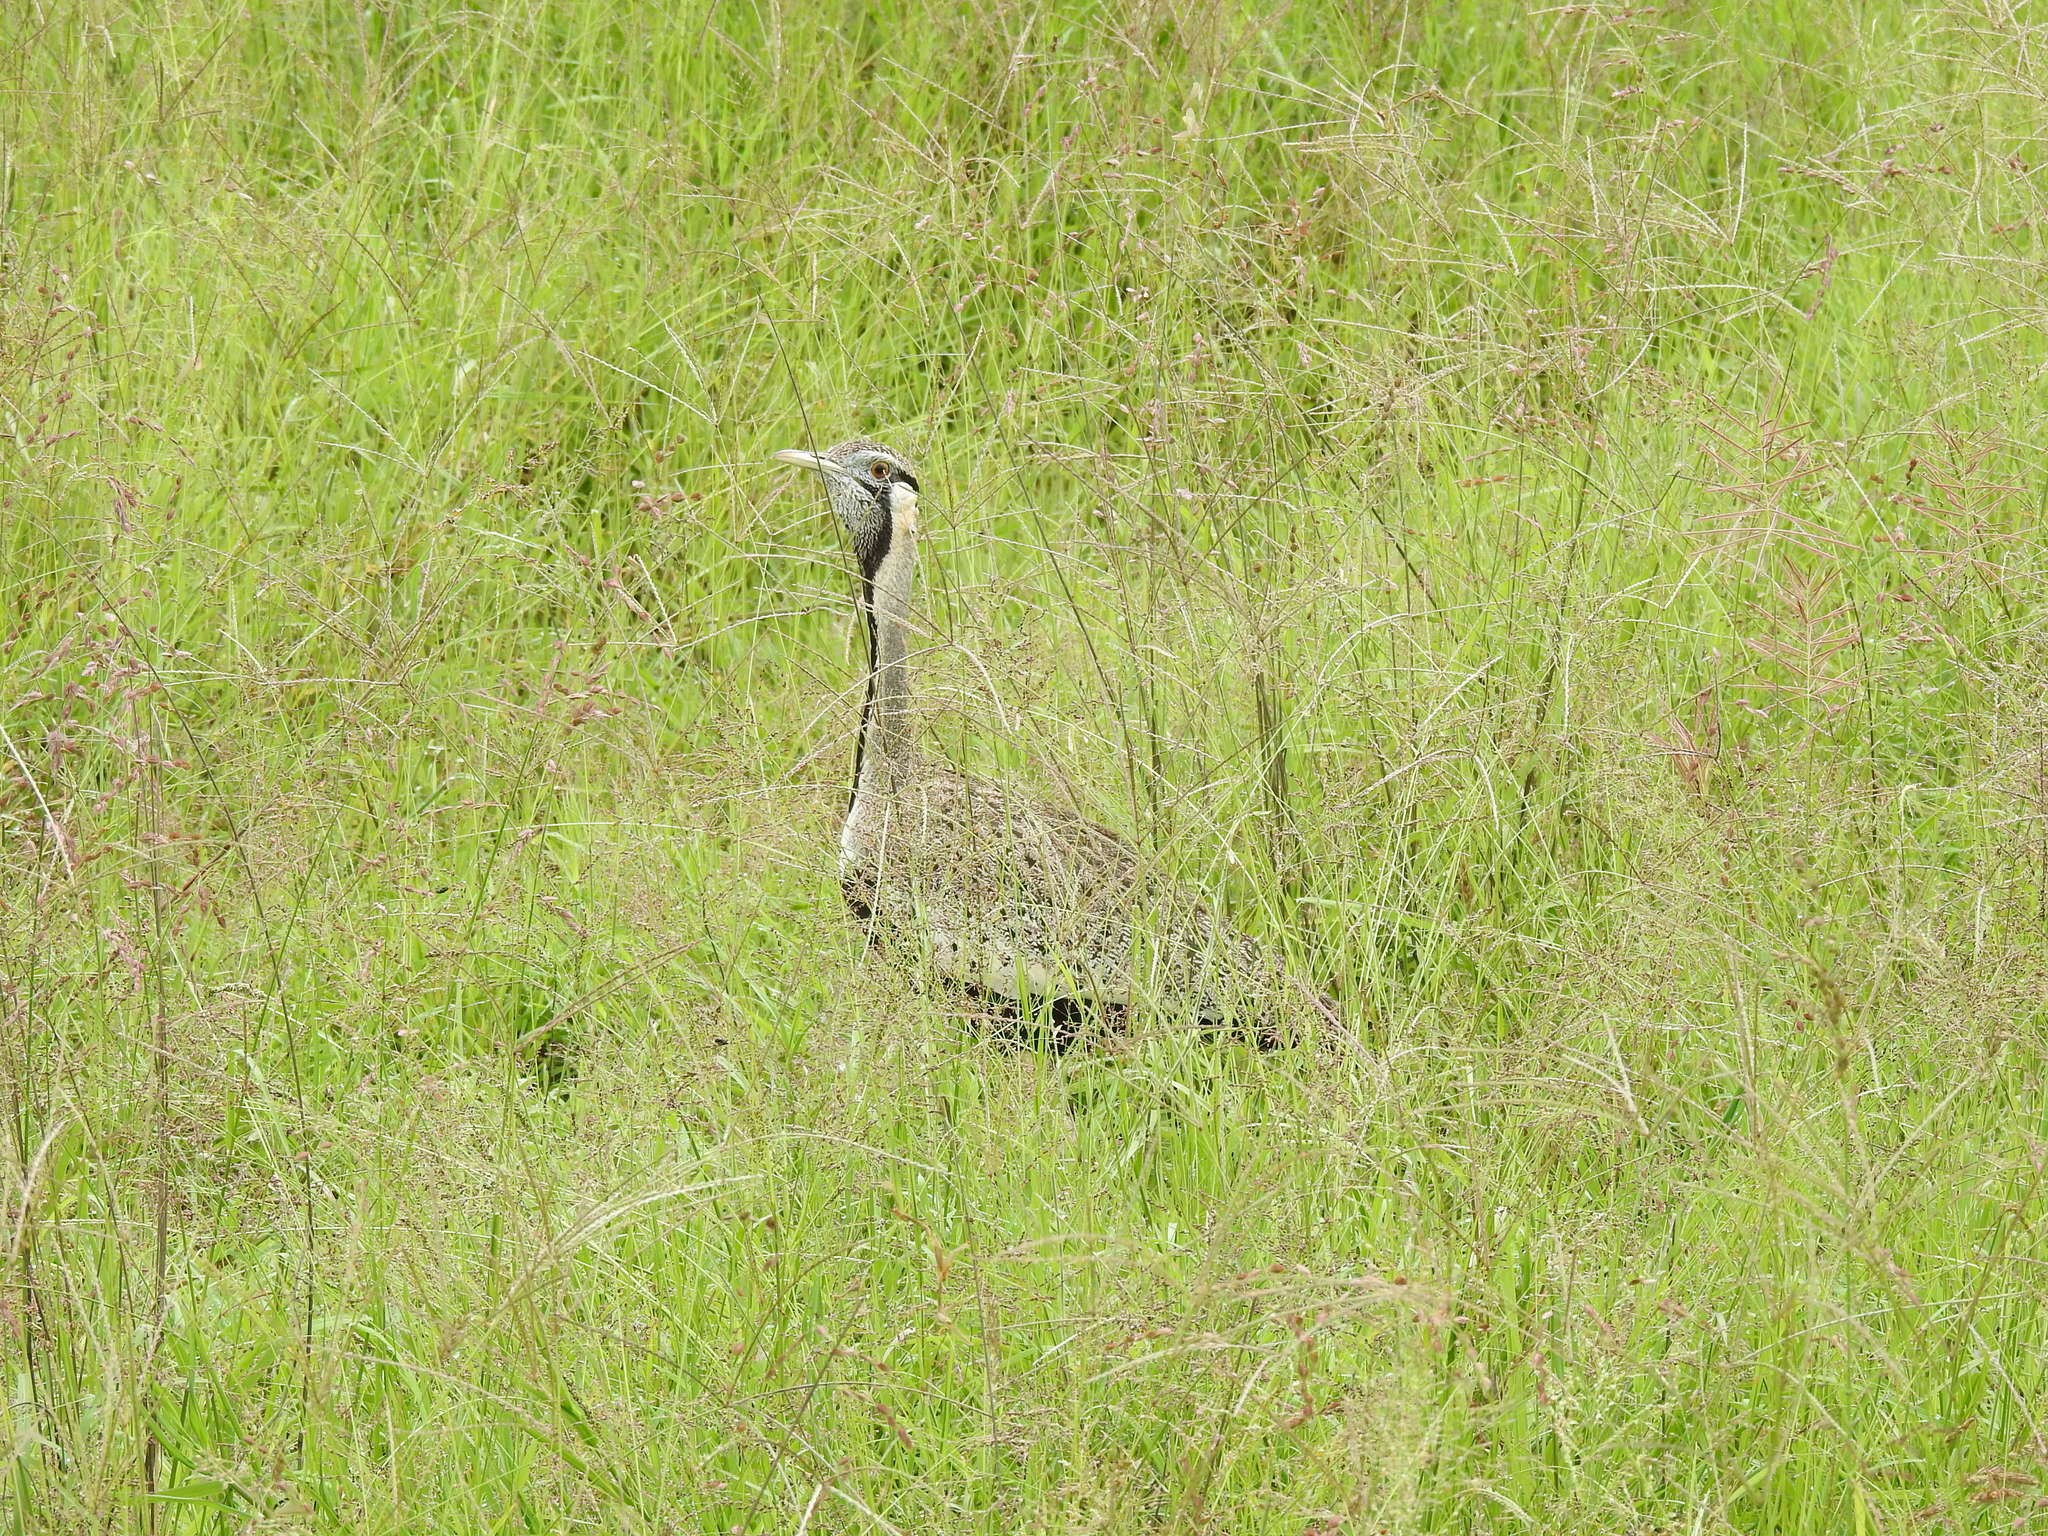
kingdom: Animalia
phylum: Chordata
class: Aves
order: Otidiformes
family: Otididae
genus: Lissotis
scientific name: Lissotis hartlaubii
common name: Hartlaub's bustard
